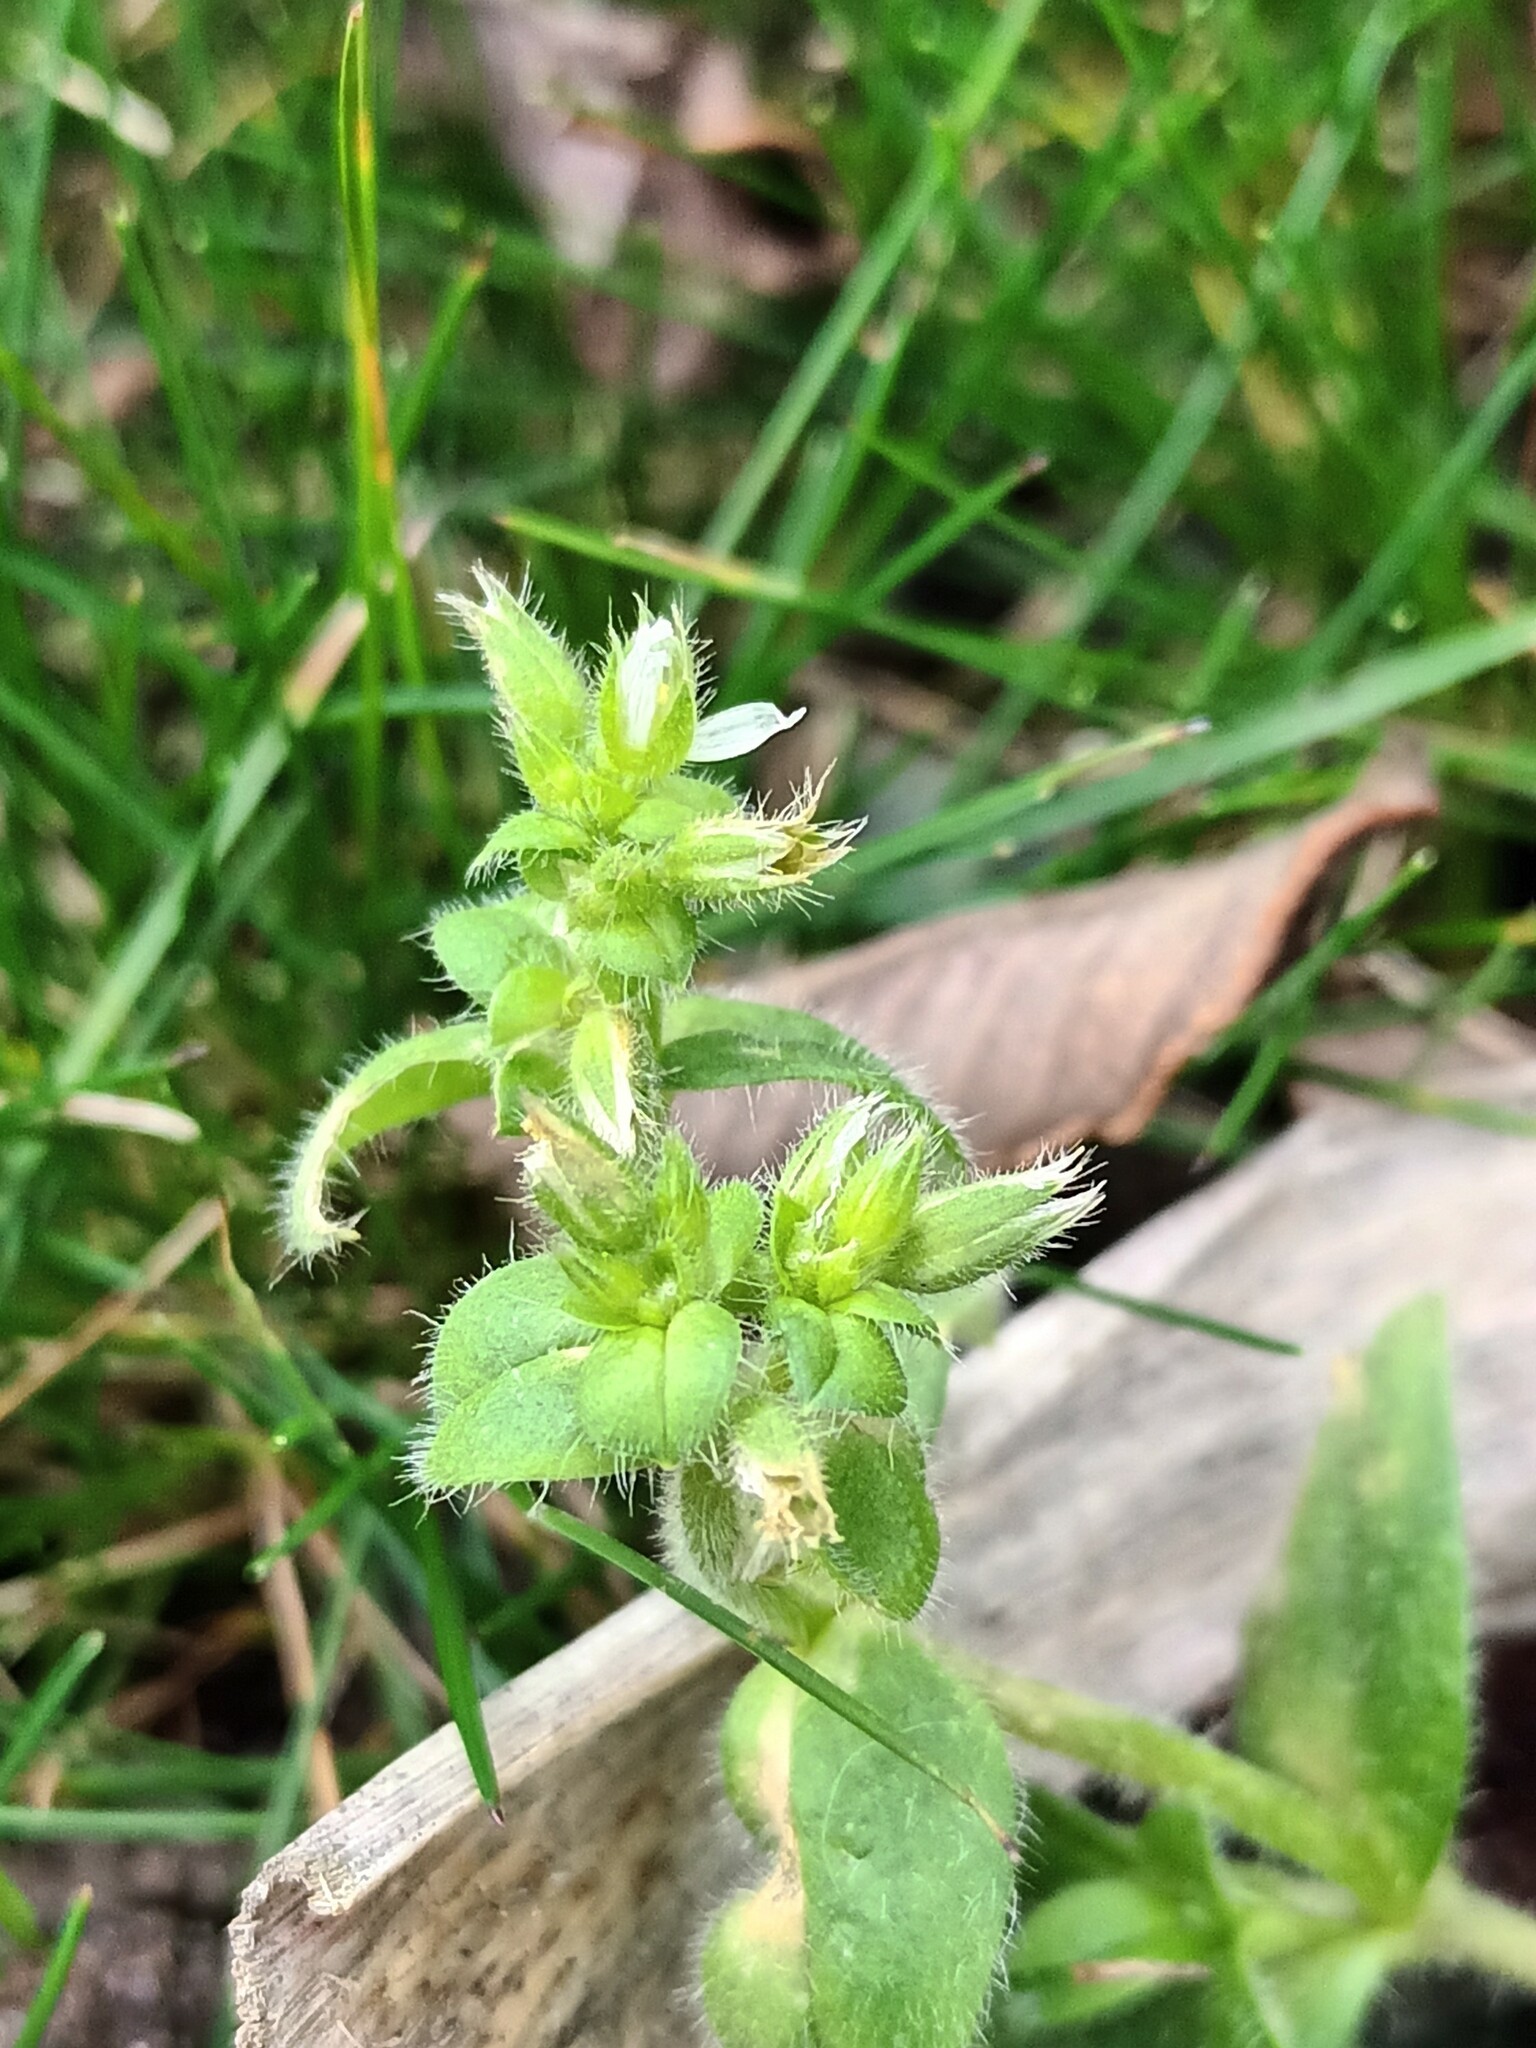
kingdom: Plantae
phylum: Tracheophyta
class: Magnoliopsida
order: Caryophyllales
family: Caryophyllaceae
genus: Cerastium
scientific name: Cerastium glomeratum
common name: Sticky chickweed
